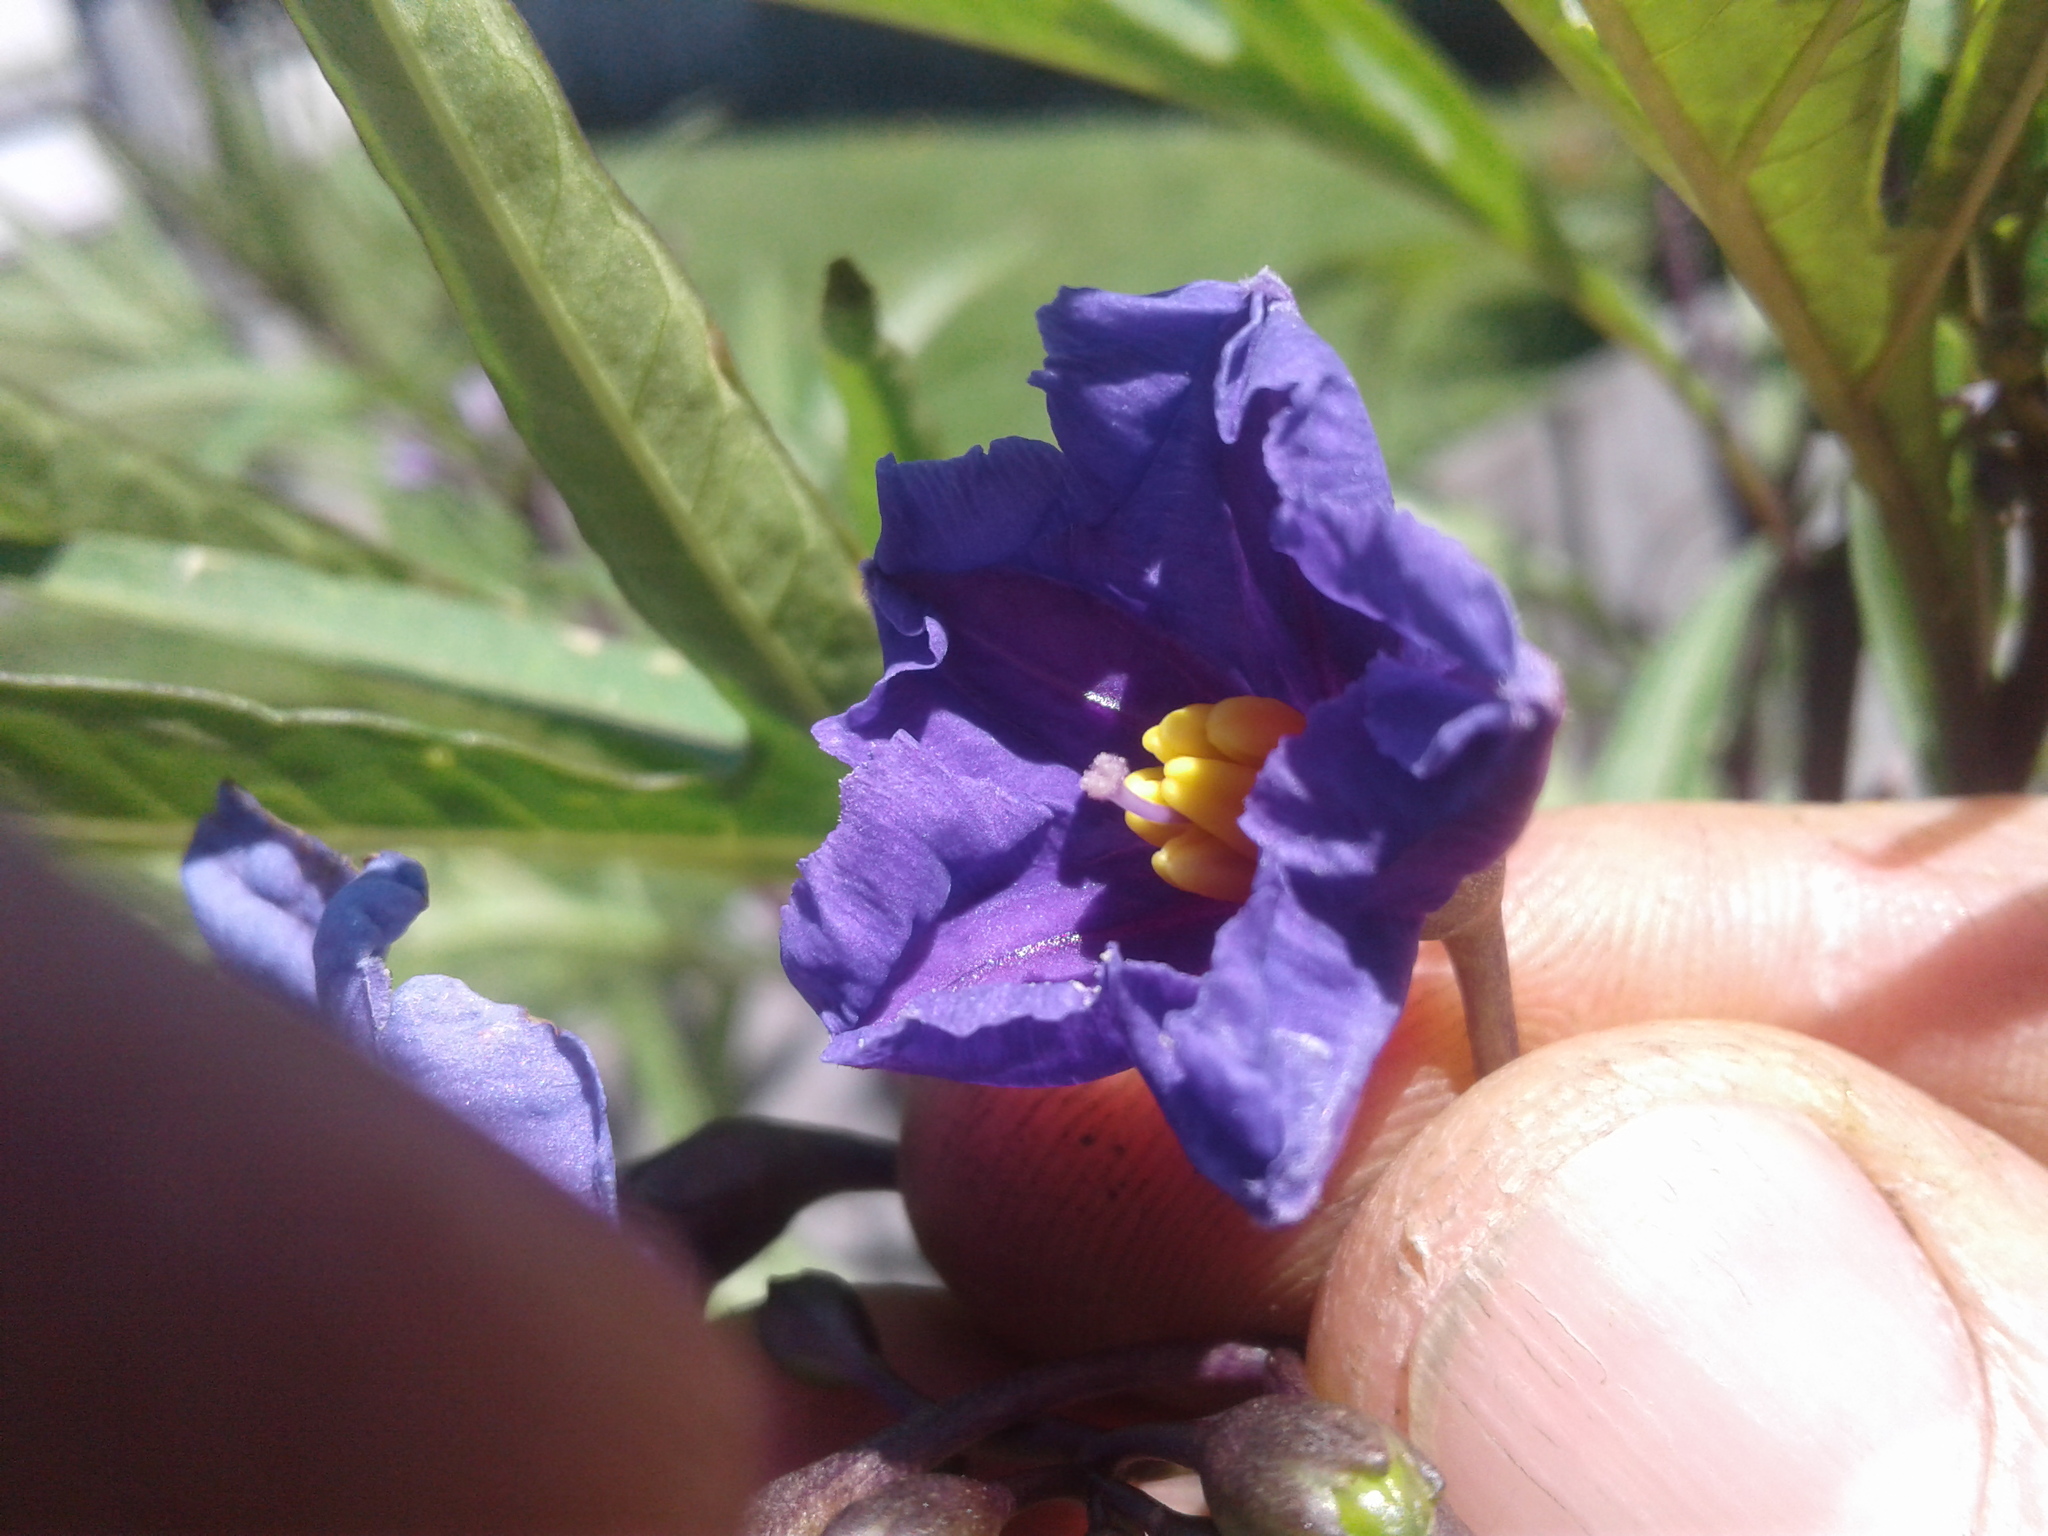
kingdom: Plantae
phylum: Tracheophyta
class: Magnoliopsida
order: Solanales
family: Solanaceae
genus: Solanum
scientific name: Solanum laciniatum
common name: Kangaroo-apple
